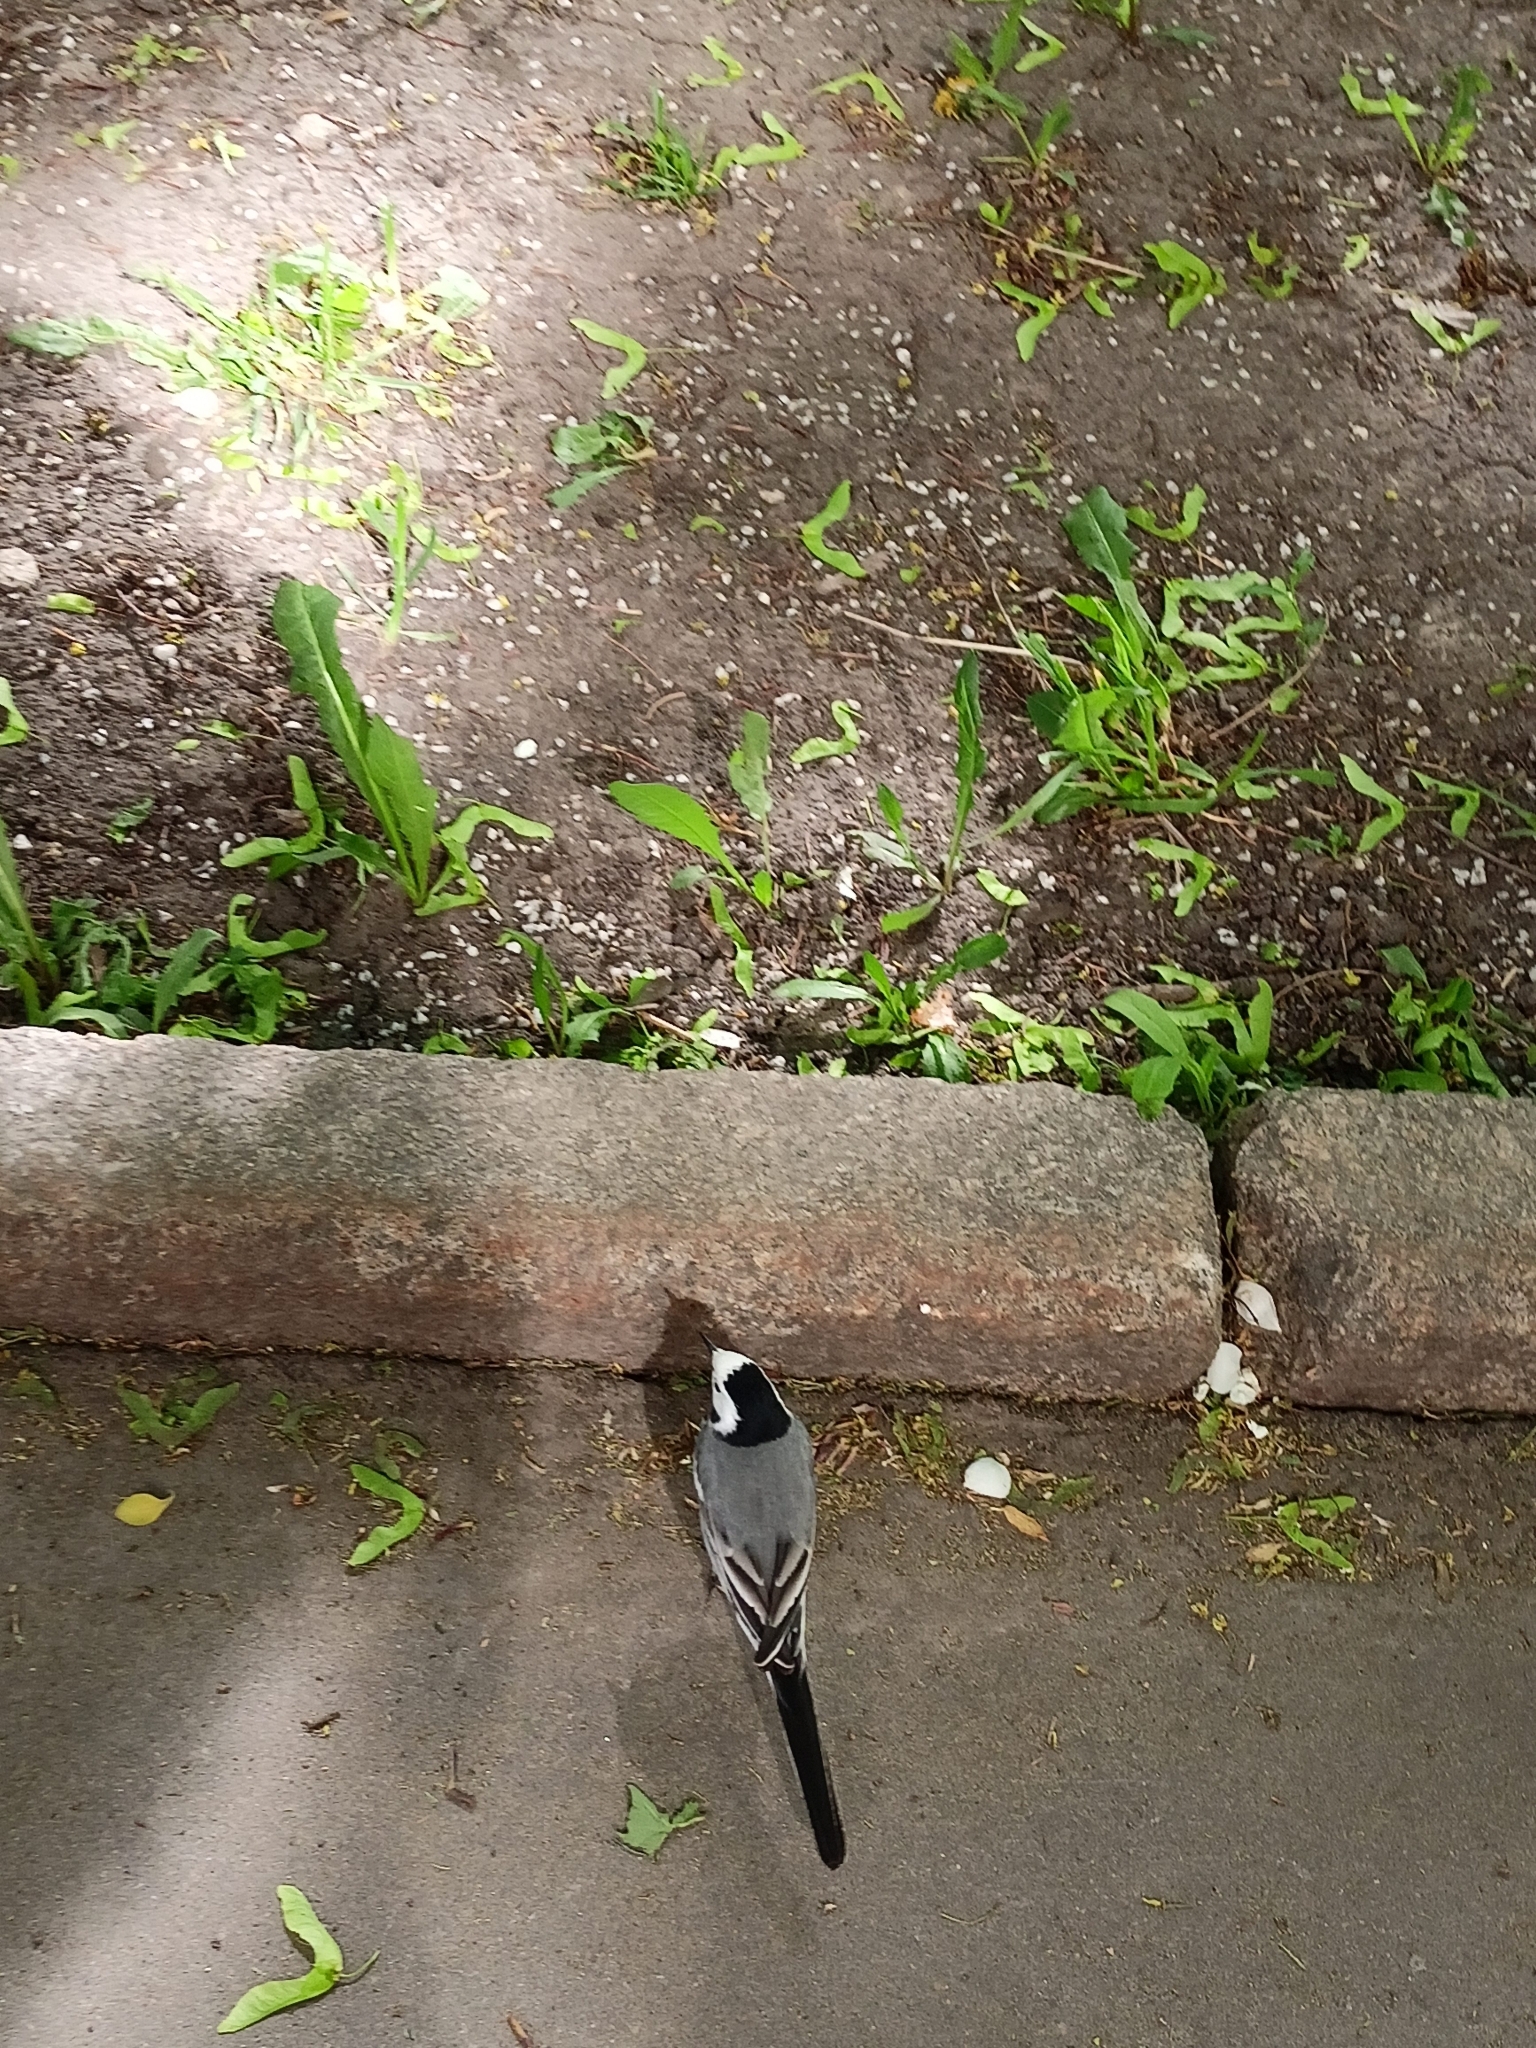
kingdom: Animalia
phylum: Chordata
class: Aves
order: Passeriformes
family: Motacillidae
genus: Motacilla
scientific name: Motacilla alba
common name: White wagtail
